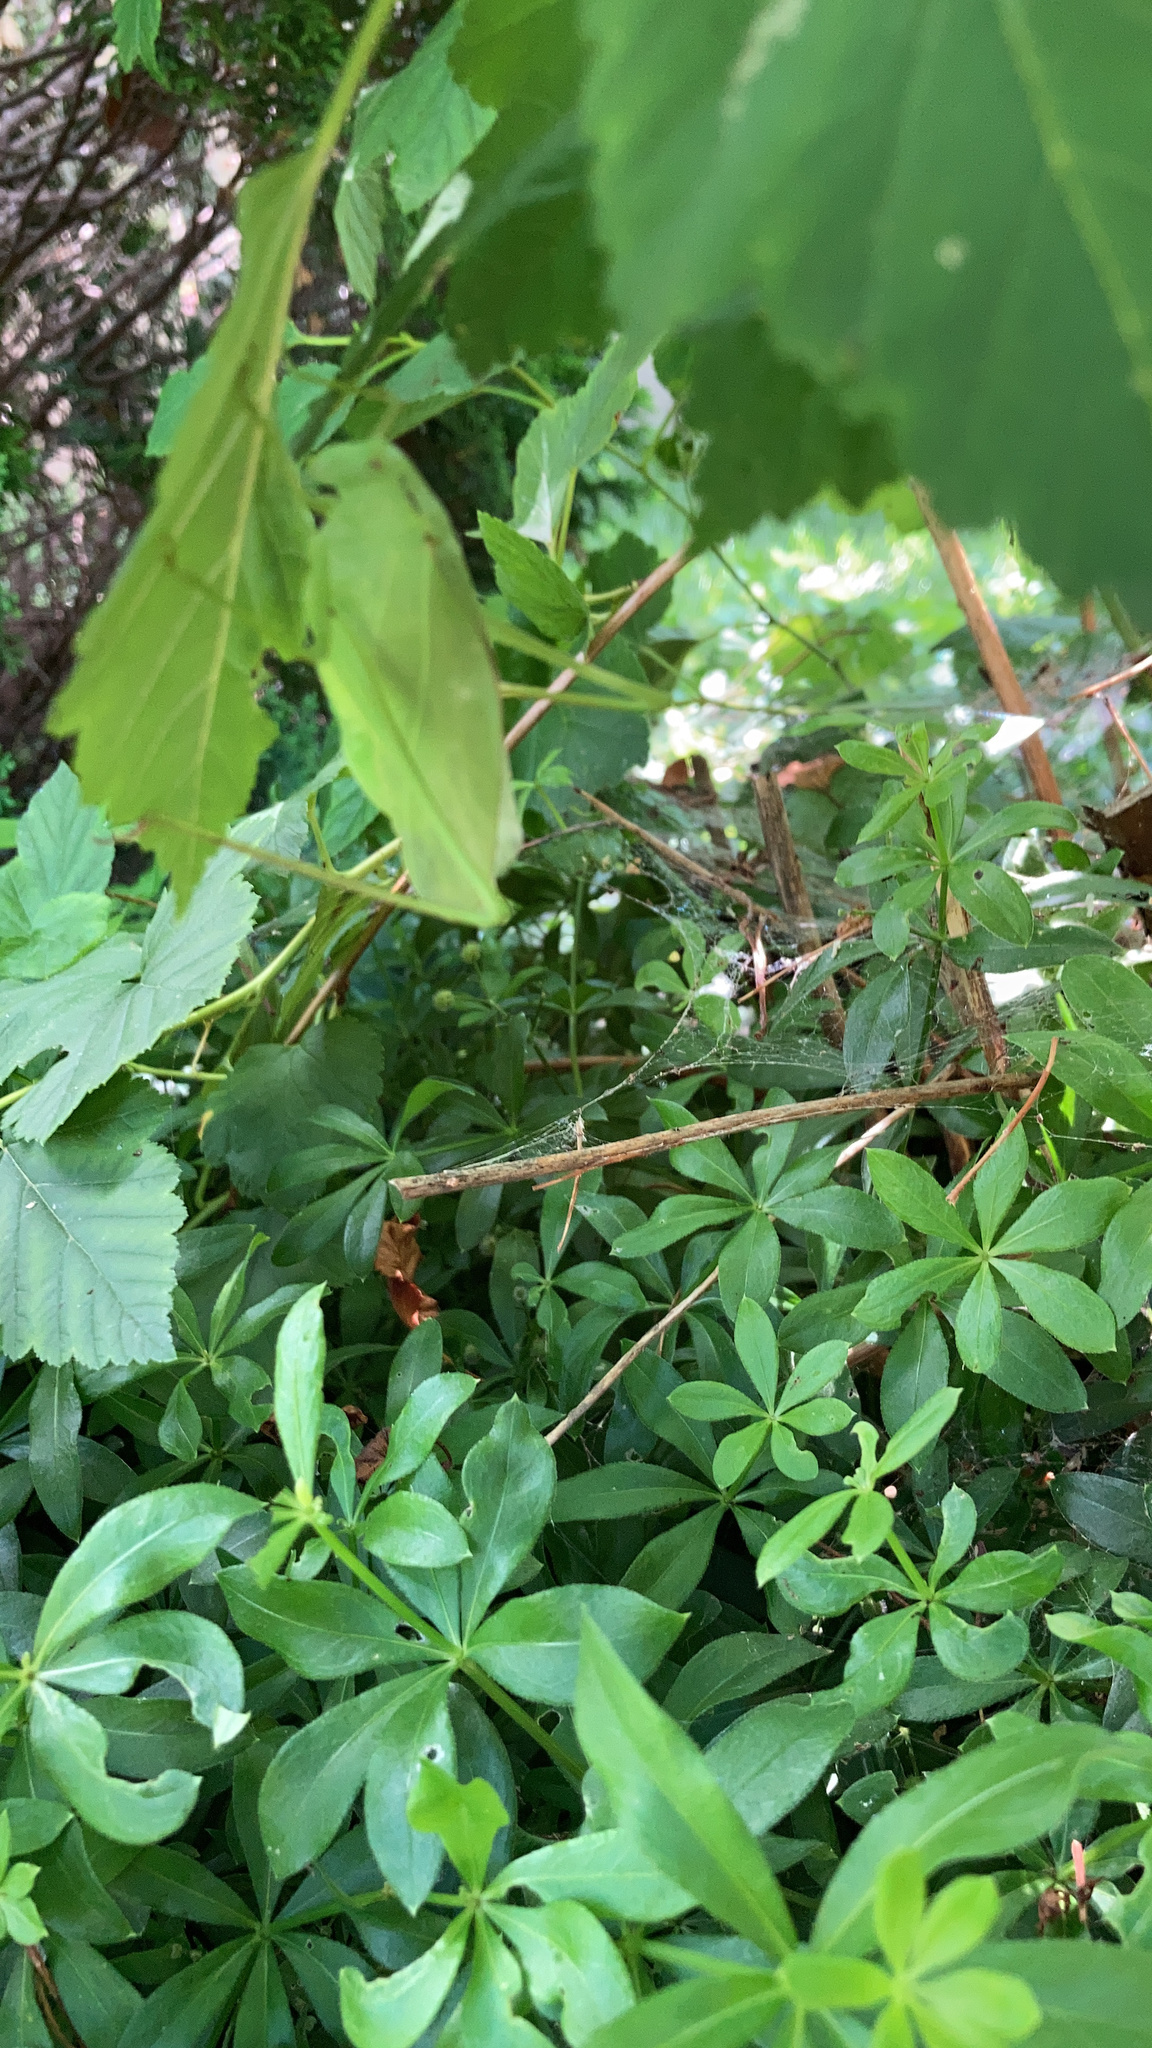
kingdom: Animalia
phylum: Arthropoda
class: Insecta
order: Orthoptera
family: Tettigoniidae
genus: Amblycorypha
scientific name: Amblycorypha oblongifolia
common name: Oblong-winged katydid
